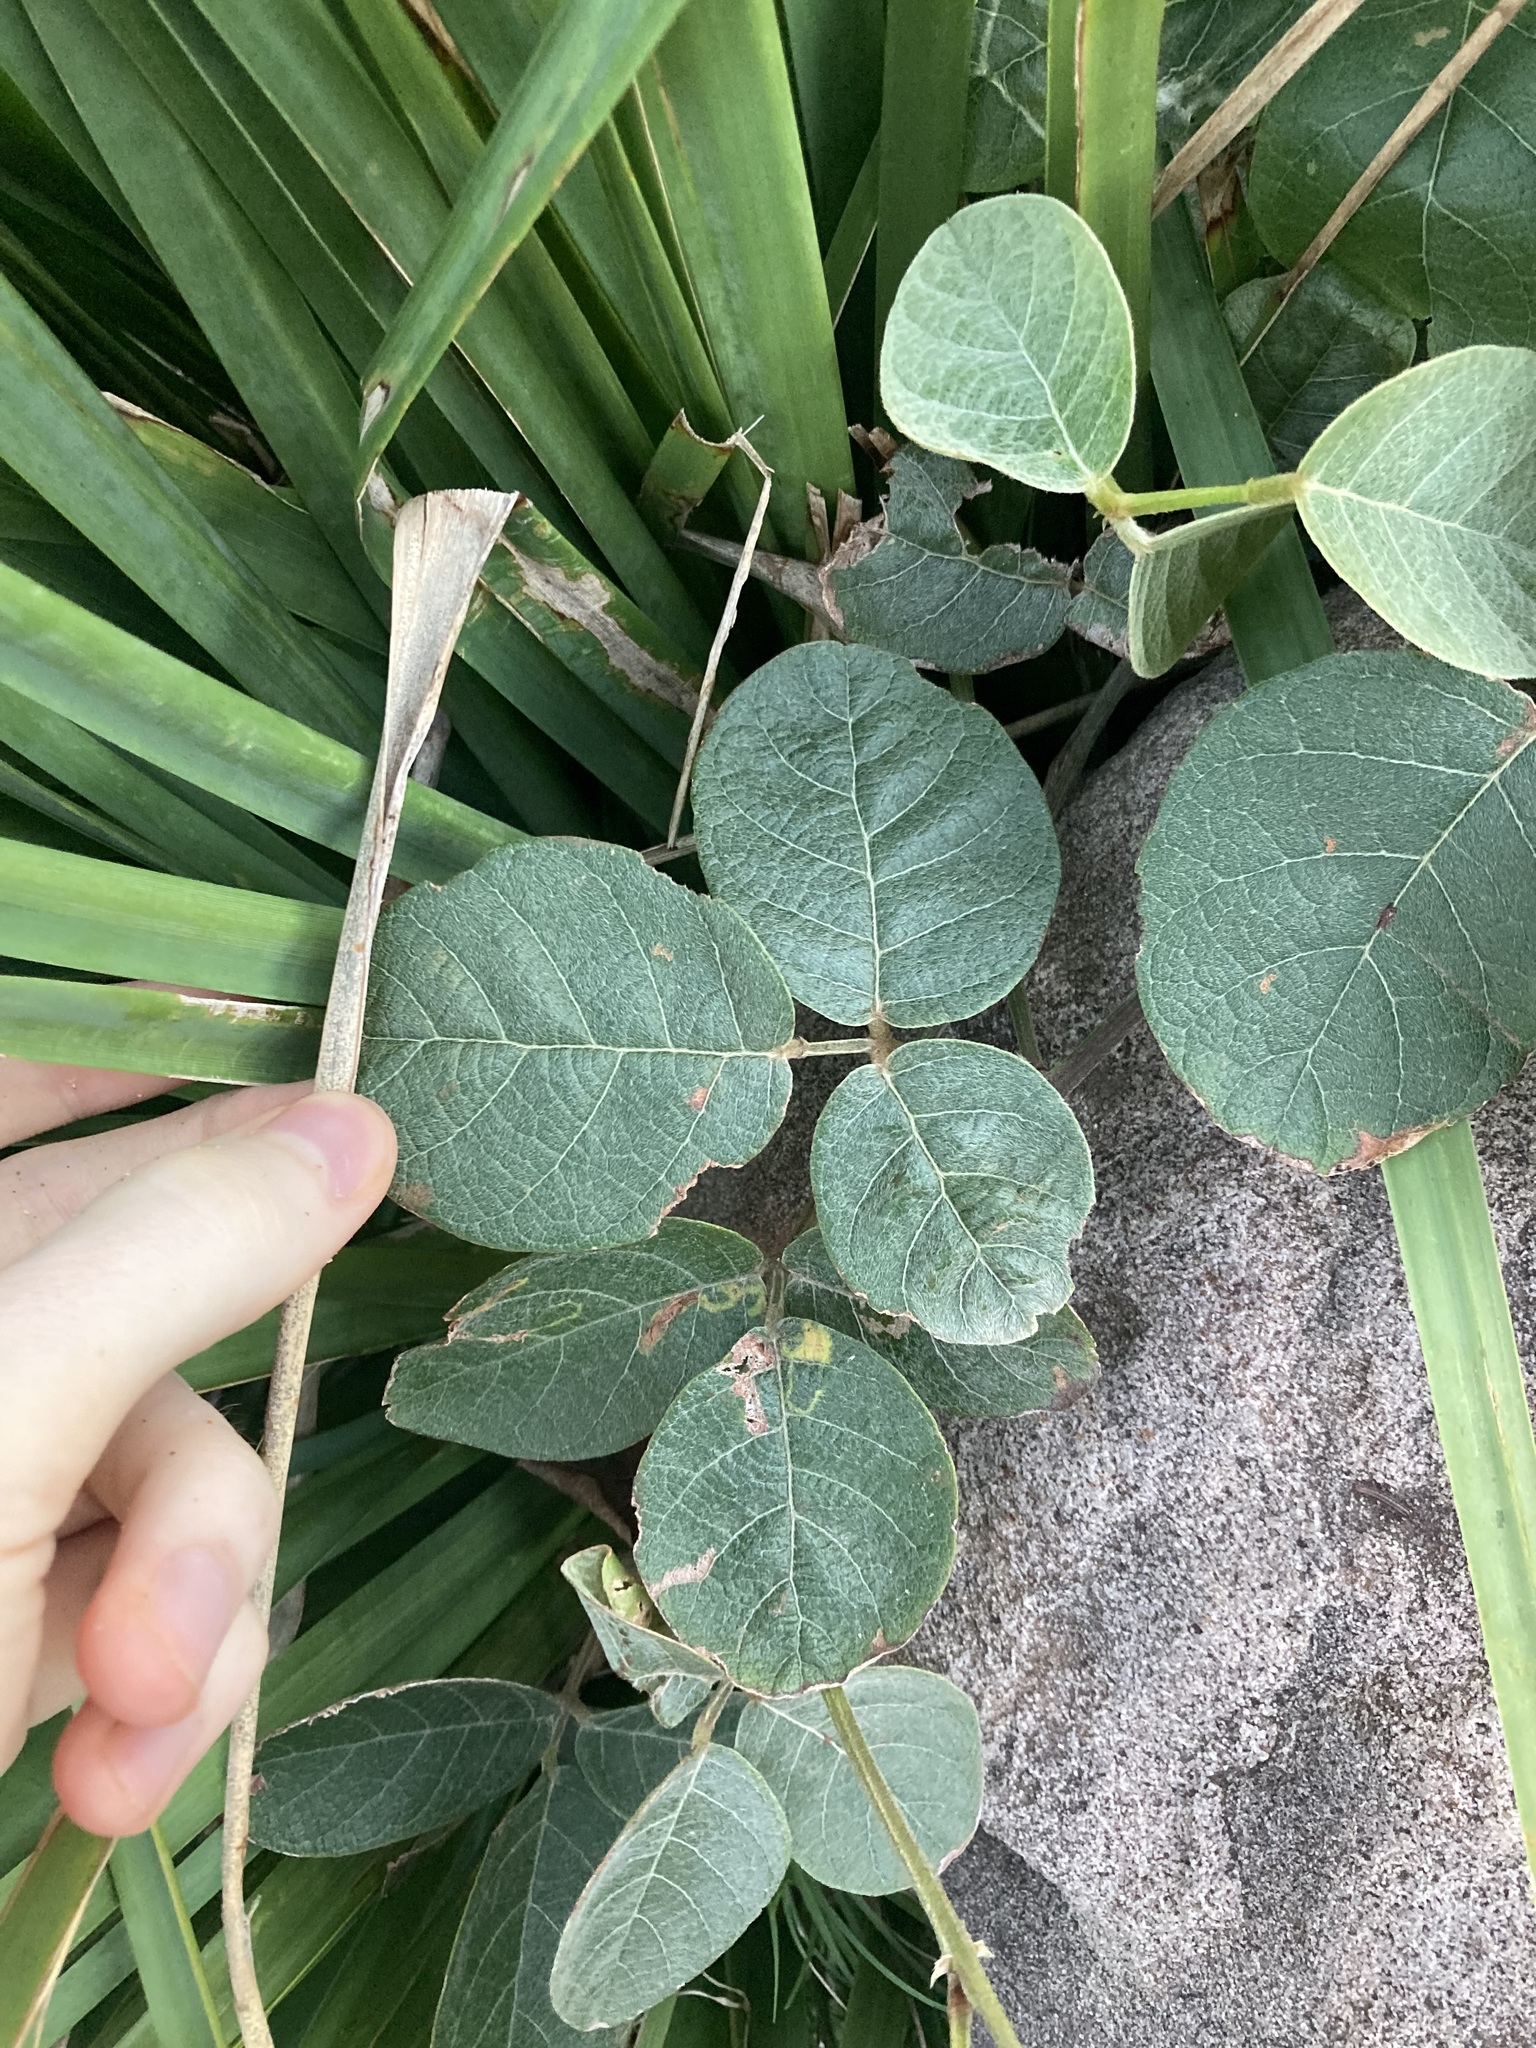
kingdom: Plantae
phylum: Tracheophyta
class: Magnoliopsida
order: Fabales
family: Fabaceae
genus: Kennedia
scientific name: Kennedia rubicunda
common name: Red kennedy-pea
